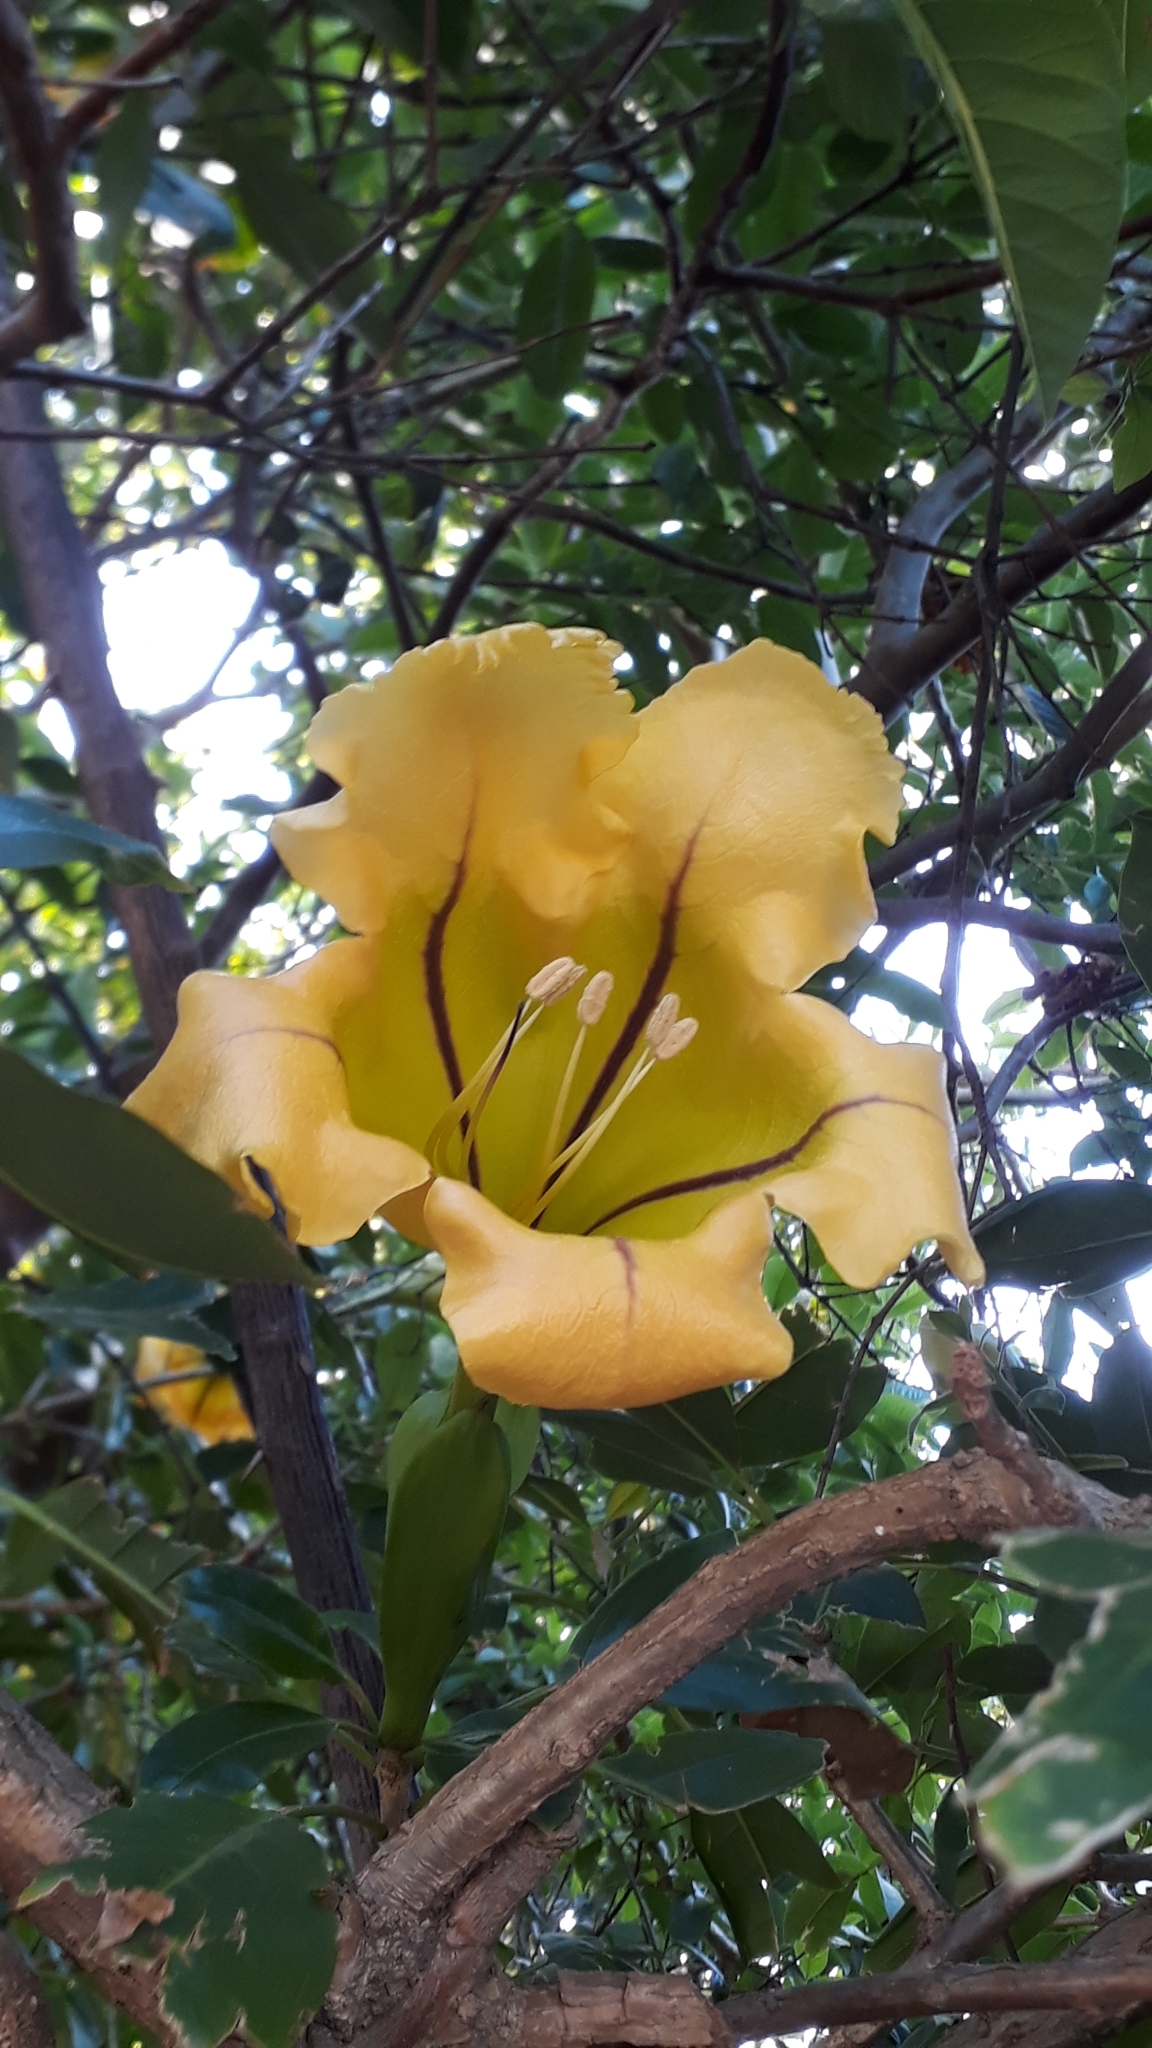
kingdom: Plantae
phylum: Tracheophyta
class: Magnoliopsida
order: Solanales
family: Solanaceae
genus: Solandra
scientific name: Solandra maxima
